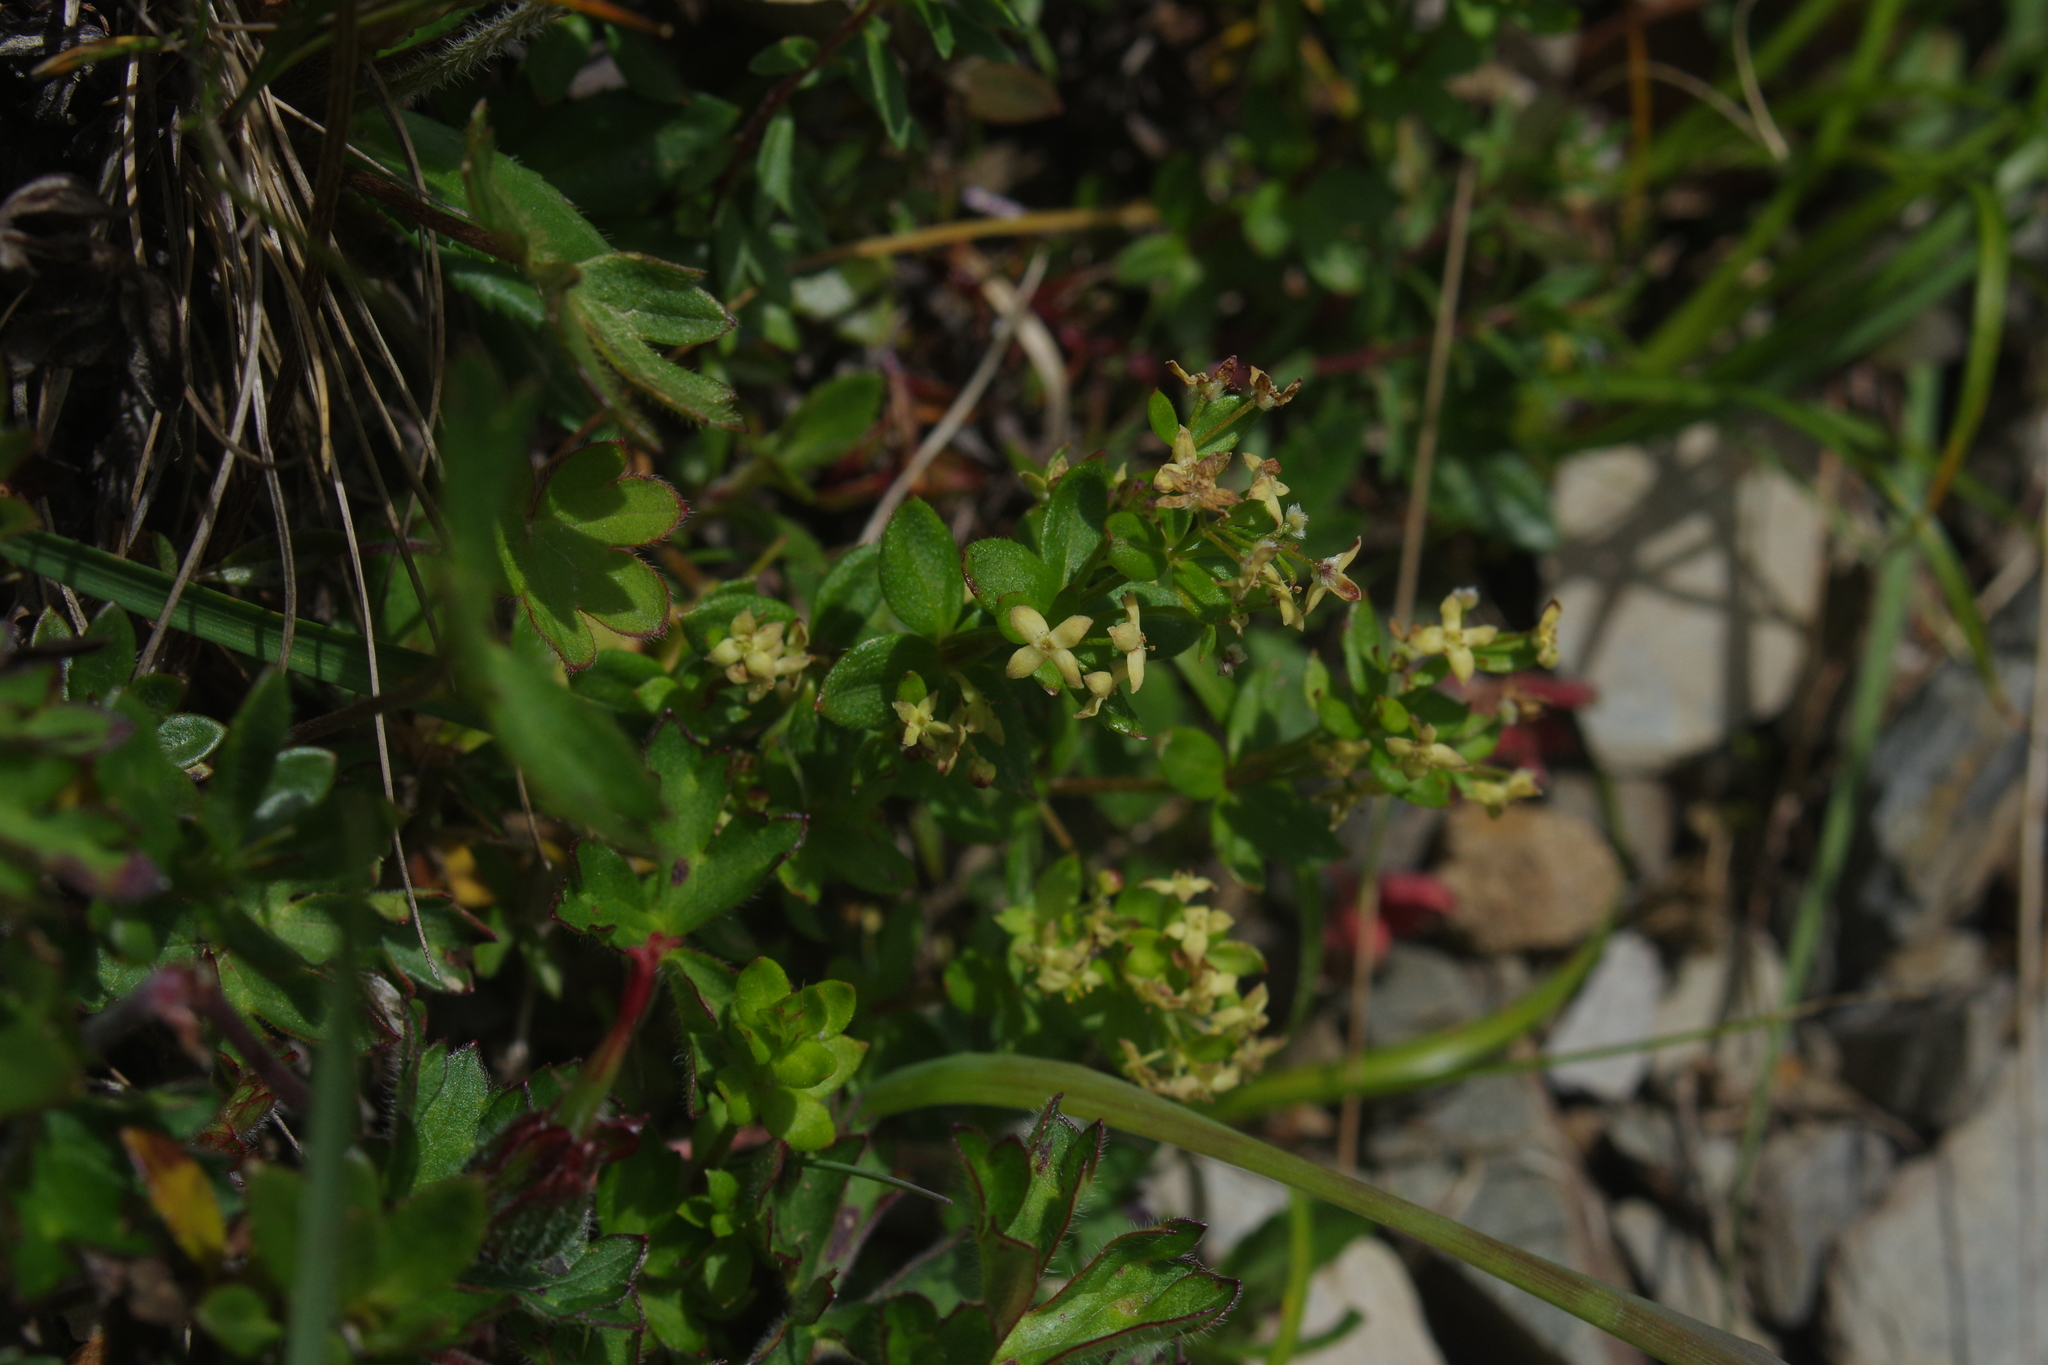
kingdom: Plantae
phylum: Tracheophyta
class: Magnoliopsida
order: Gentianales
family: Rubiaceae
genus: Galium
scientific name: Galium nankotaizanum
